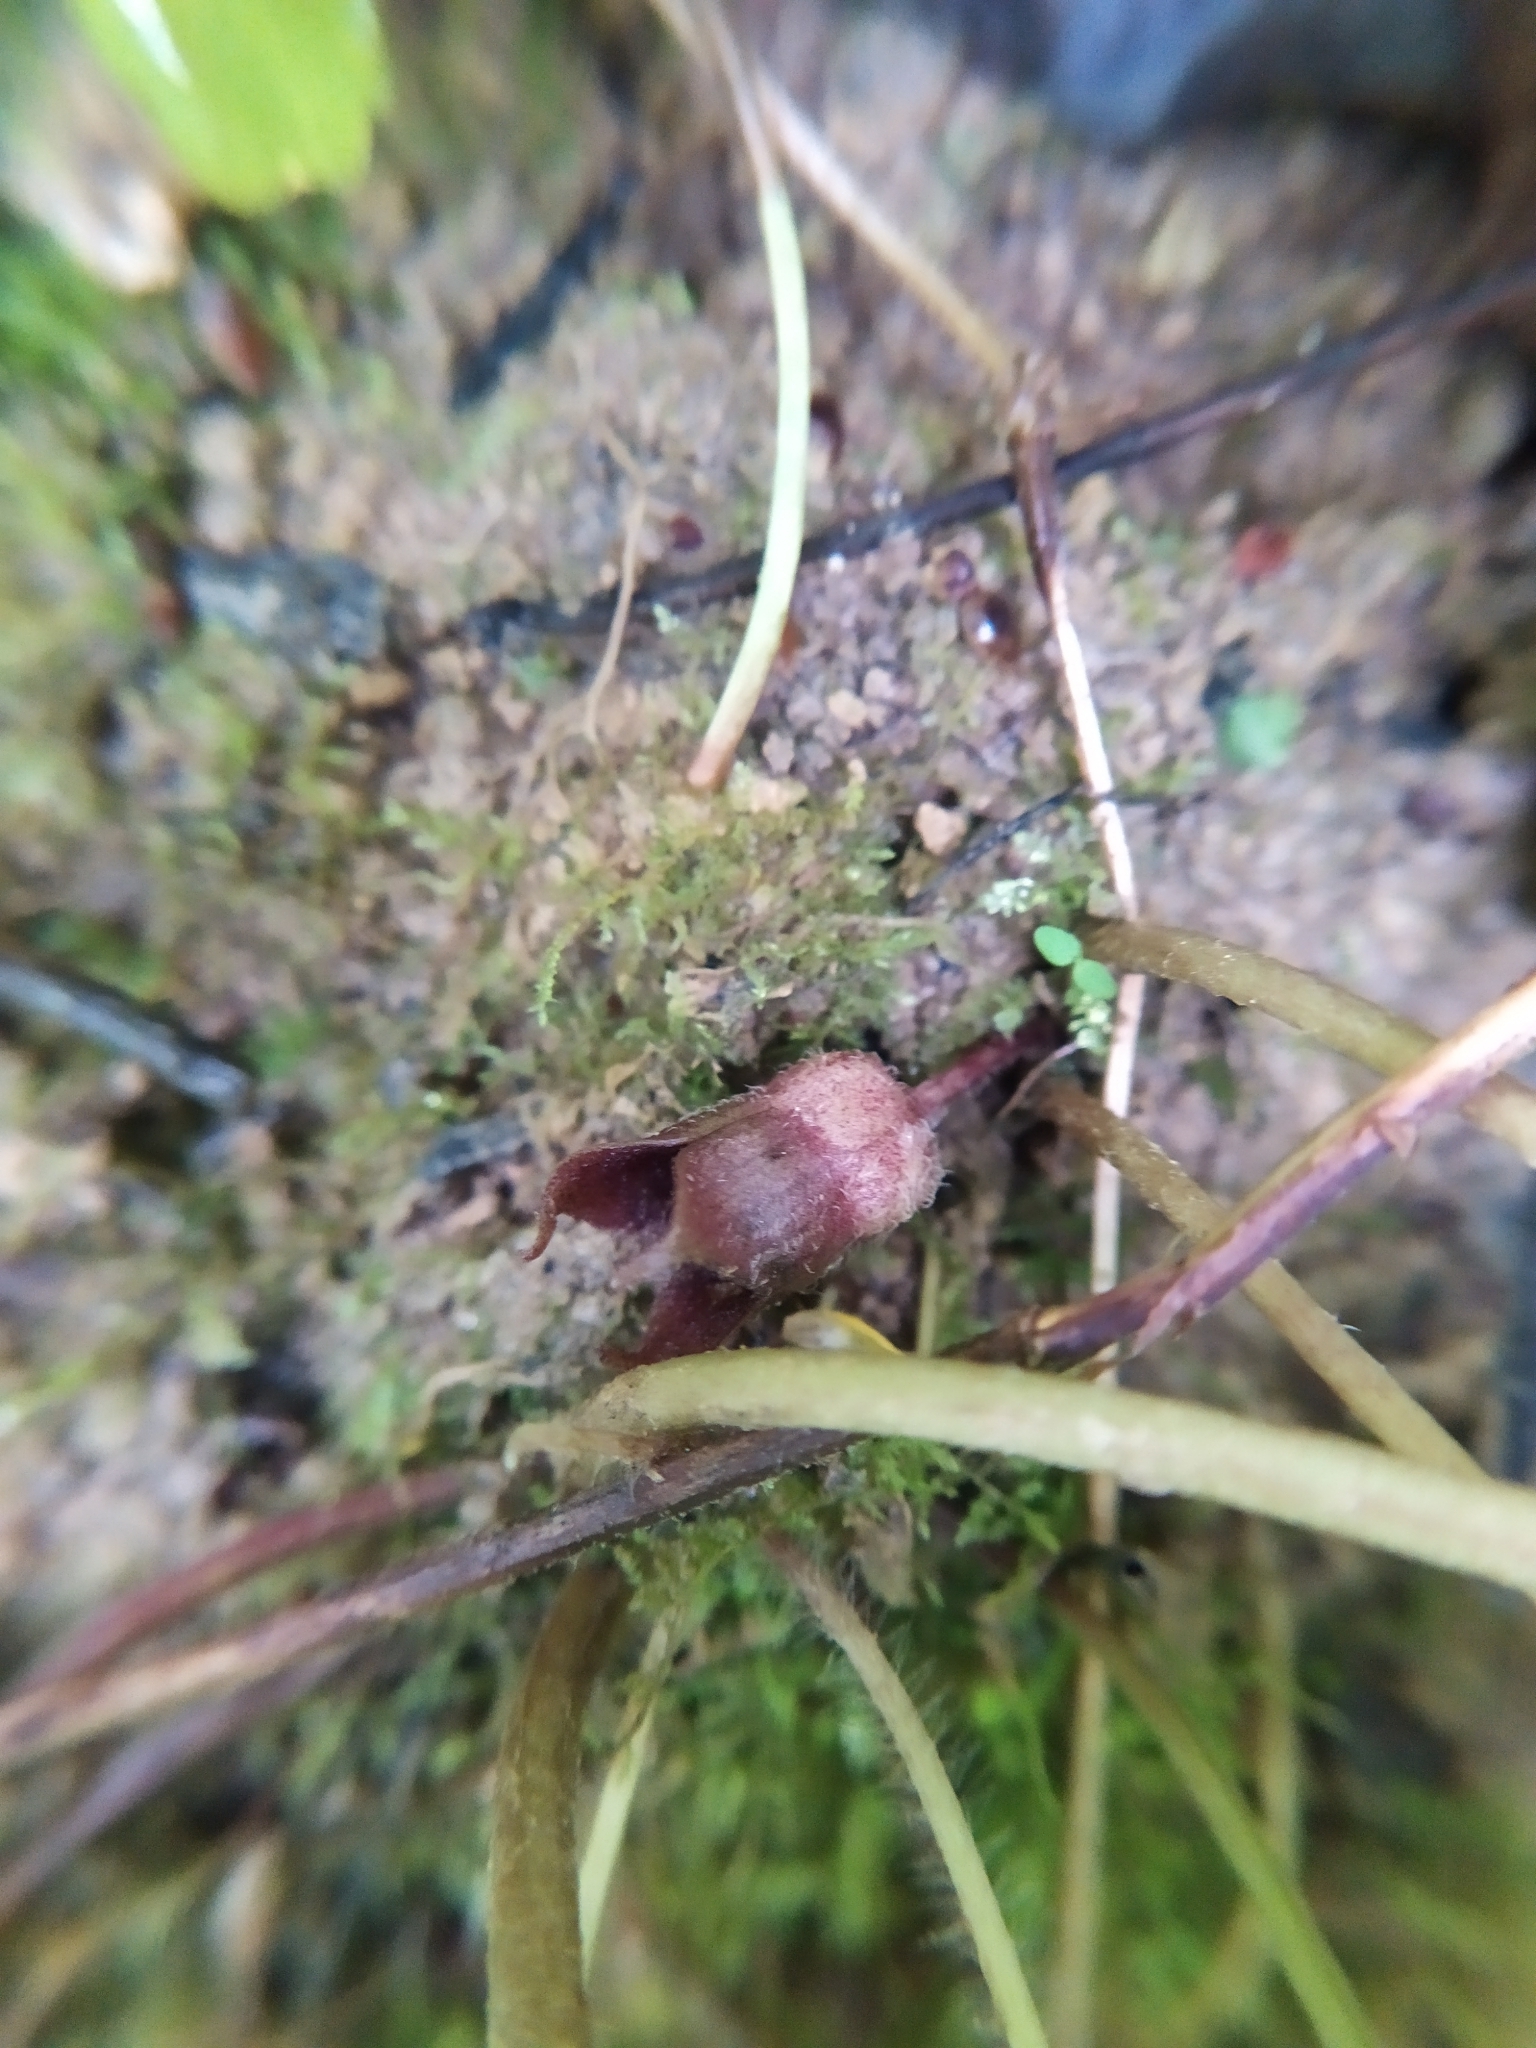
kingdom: Plantae
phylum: Tracheophyta
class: Magnoliopsida
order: Piperales
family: Aristolochiaceae
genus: Asarum
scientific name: Asarum europaeum
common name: Asarabacca
